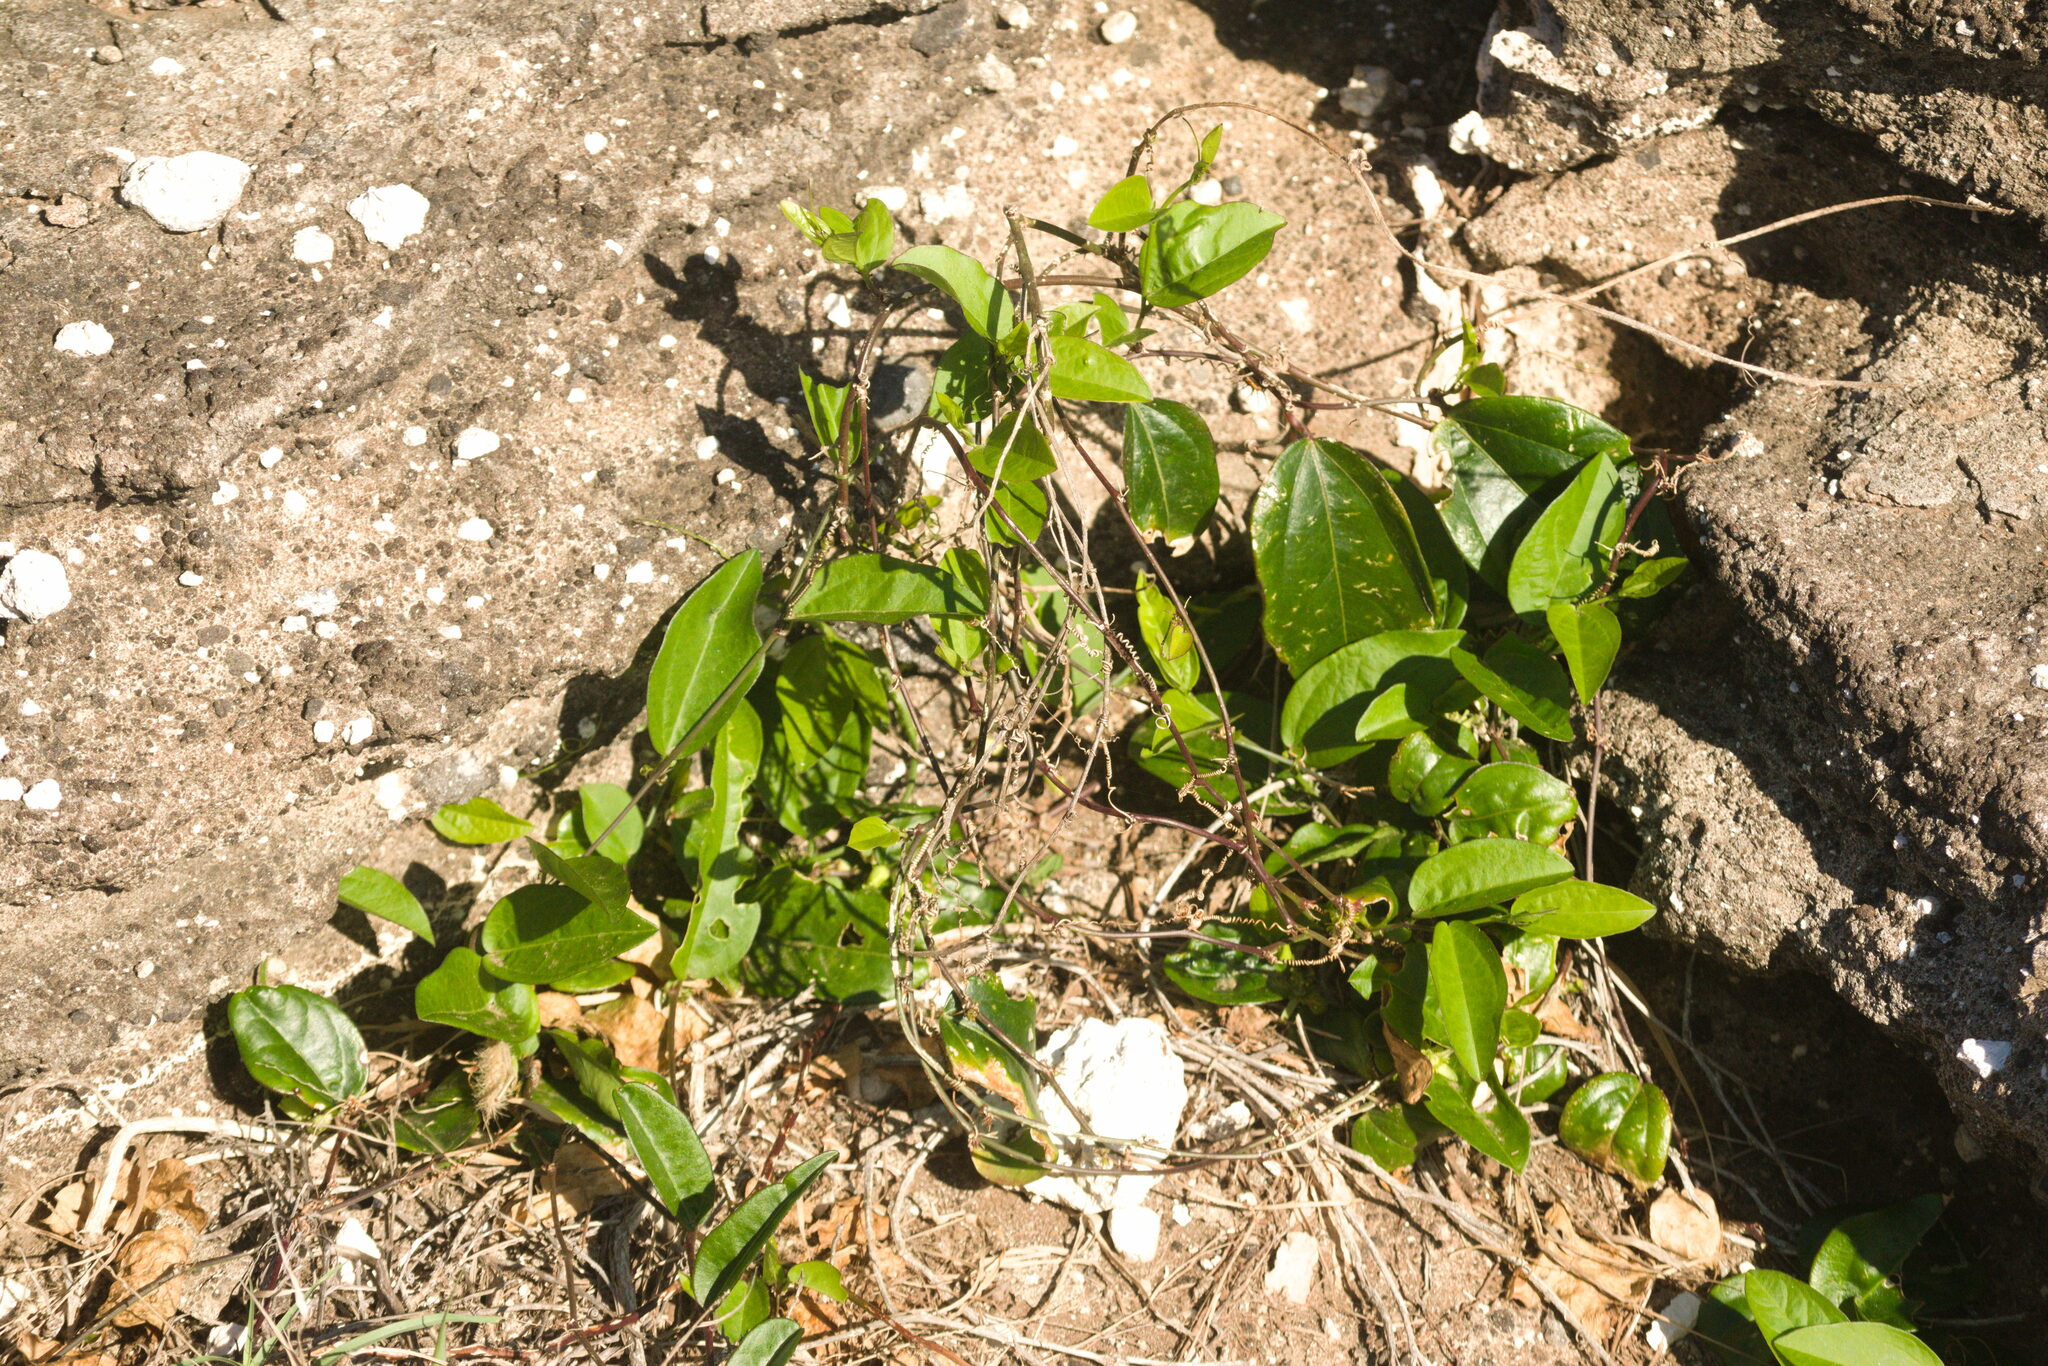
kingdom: Plantae
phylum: Tracheophyta
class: Magnoliopsida
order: Malpighiales
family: Passifloraceae
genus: Passiflora
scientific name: Passiflora suberosa
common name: Wild passionfruit
